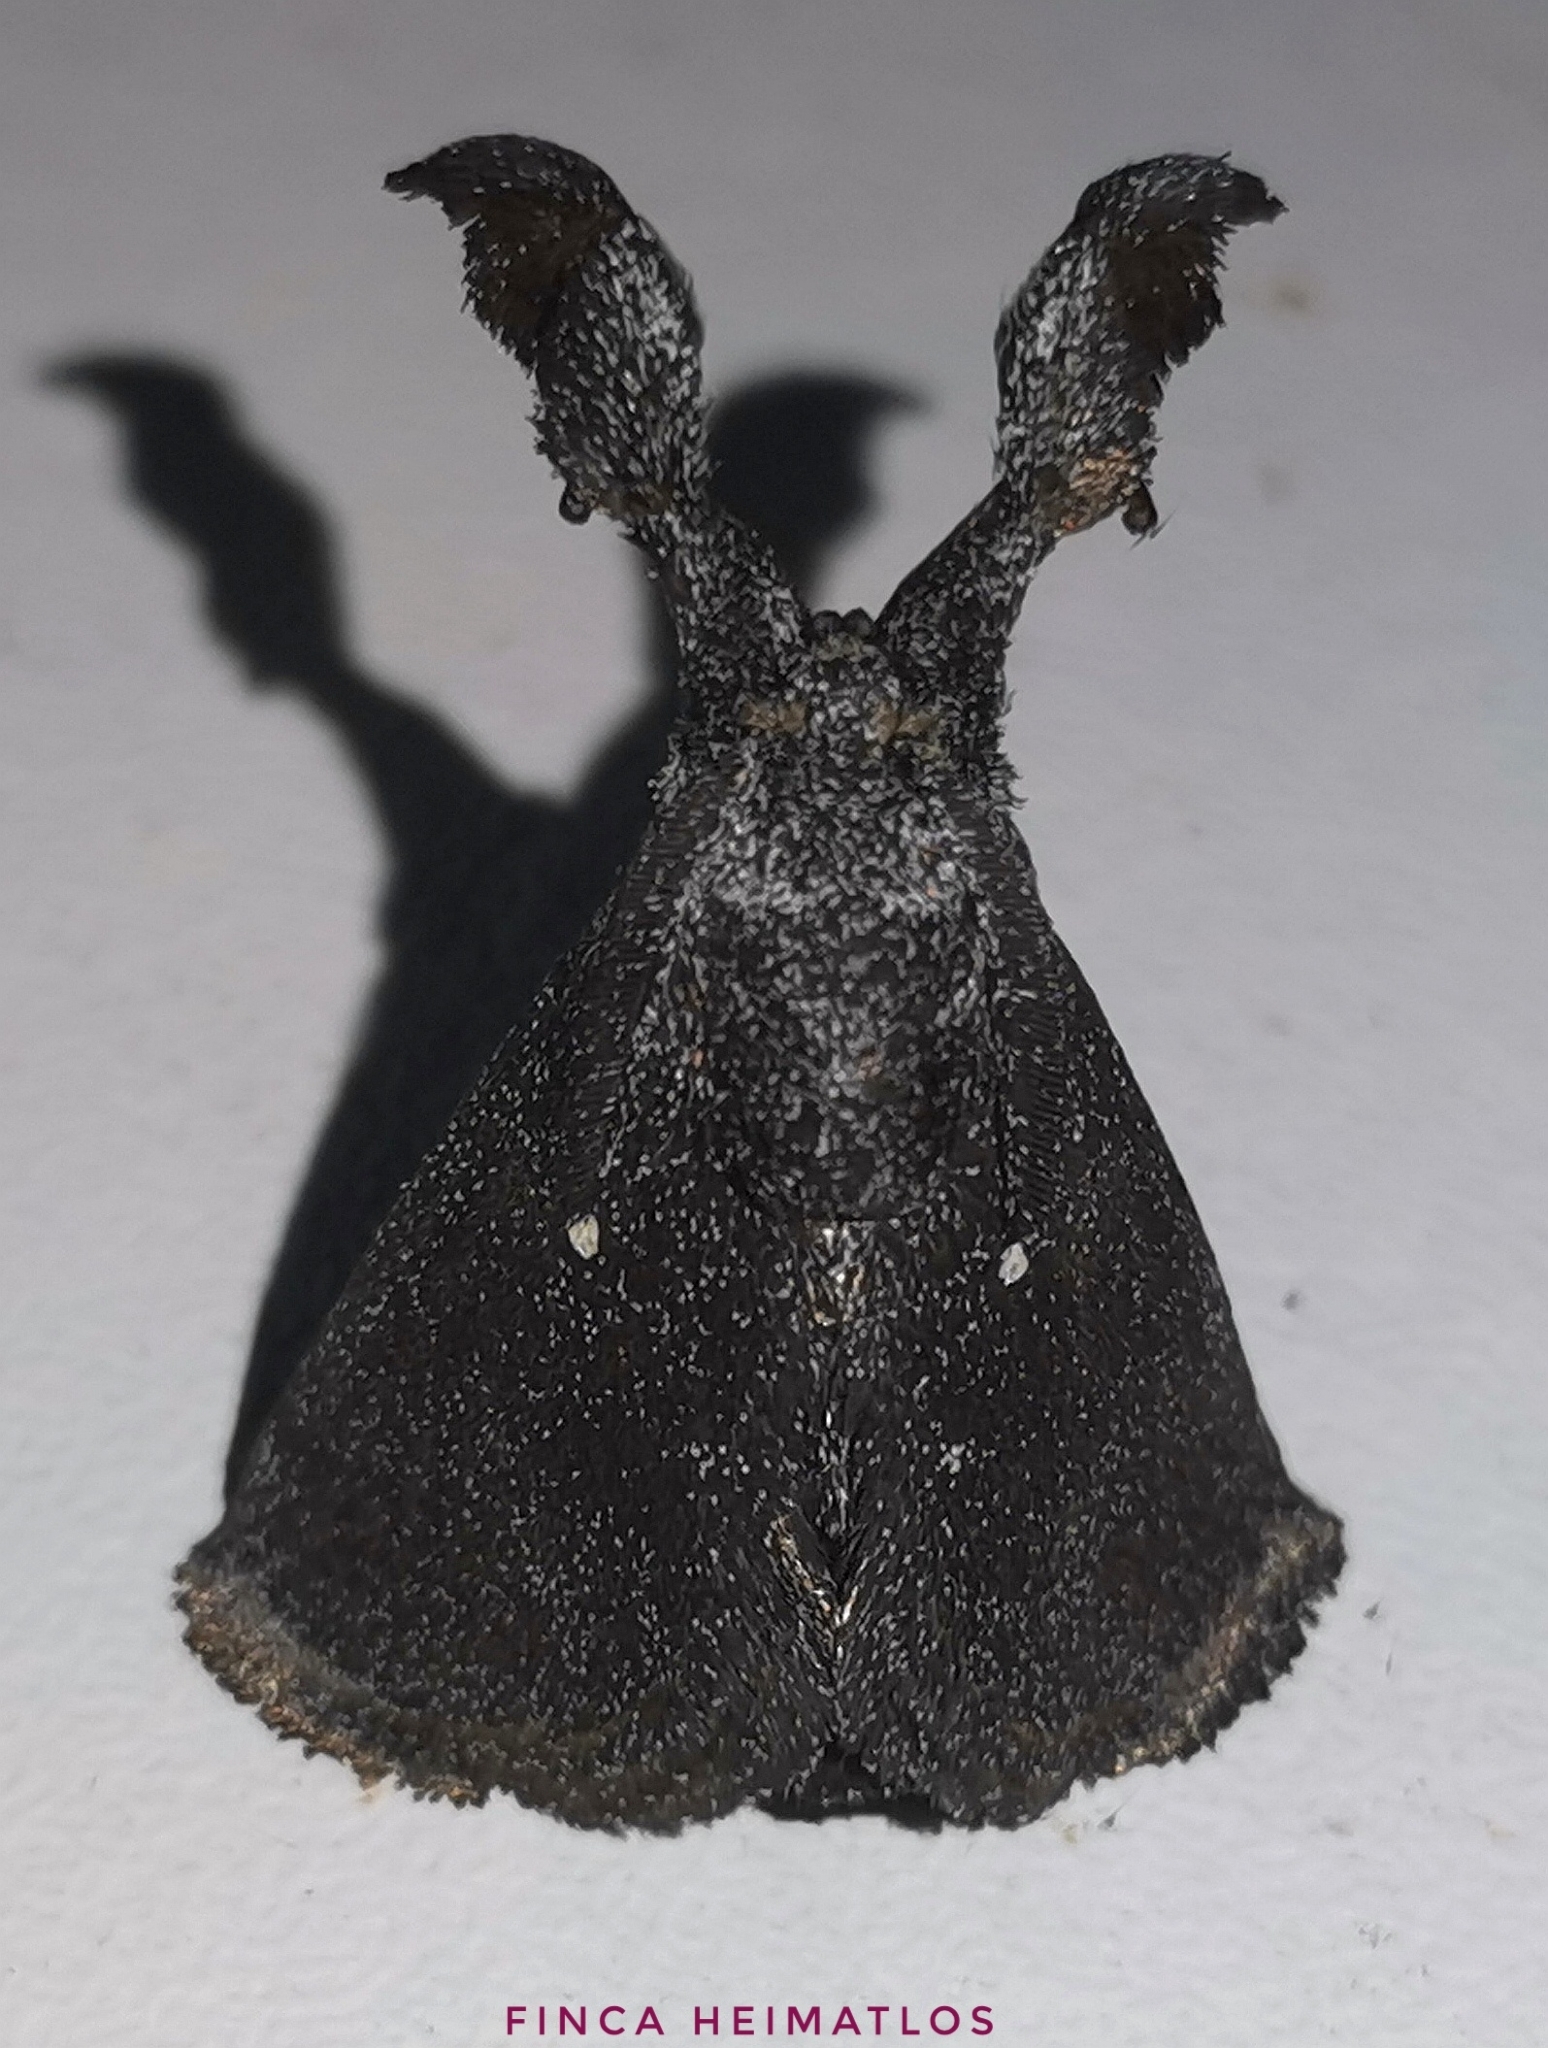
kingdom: Animalia
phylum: Arthropoda
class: Insecta
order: Lepidoptera
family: Limacodidae
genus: Perola
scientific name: Perola repetita
